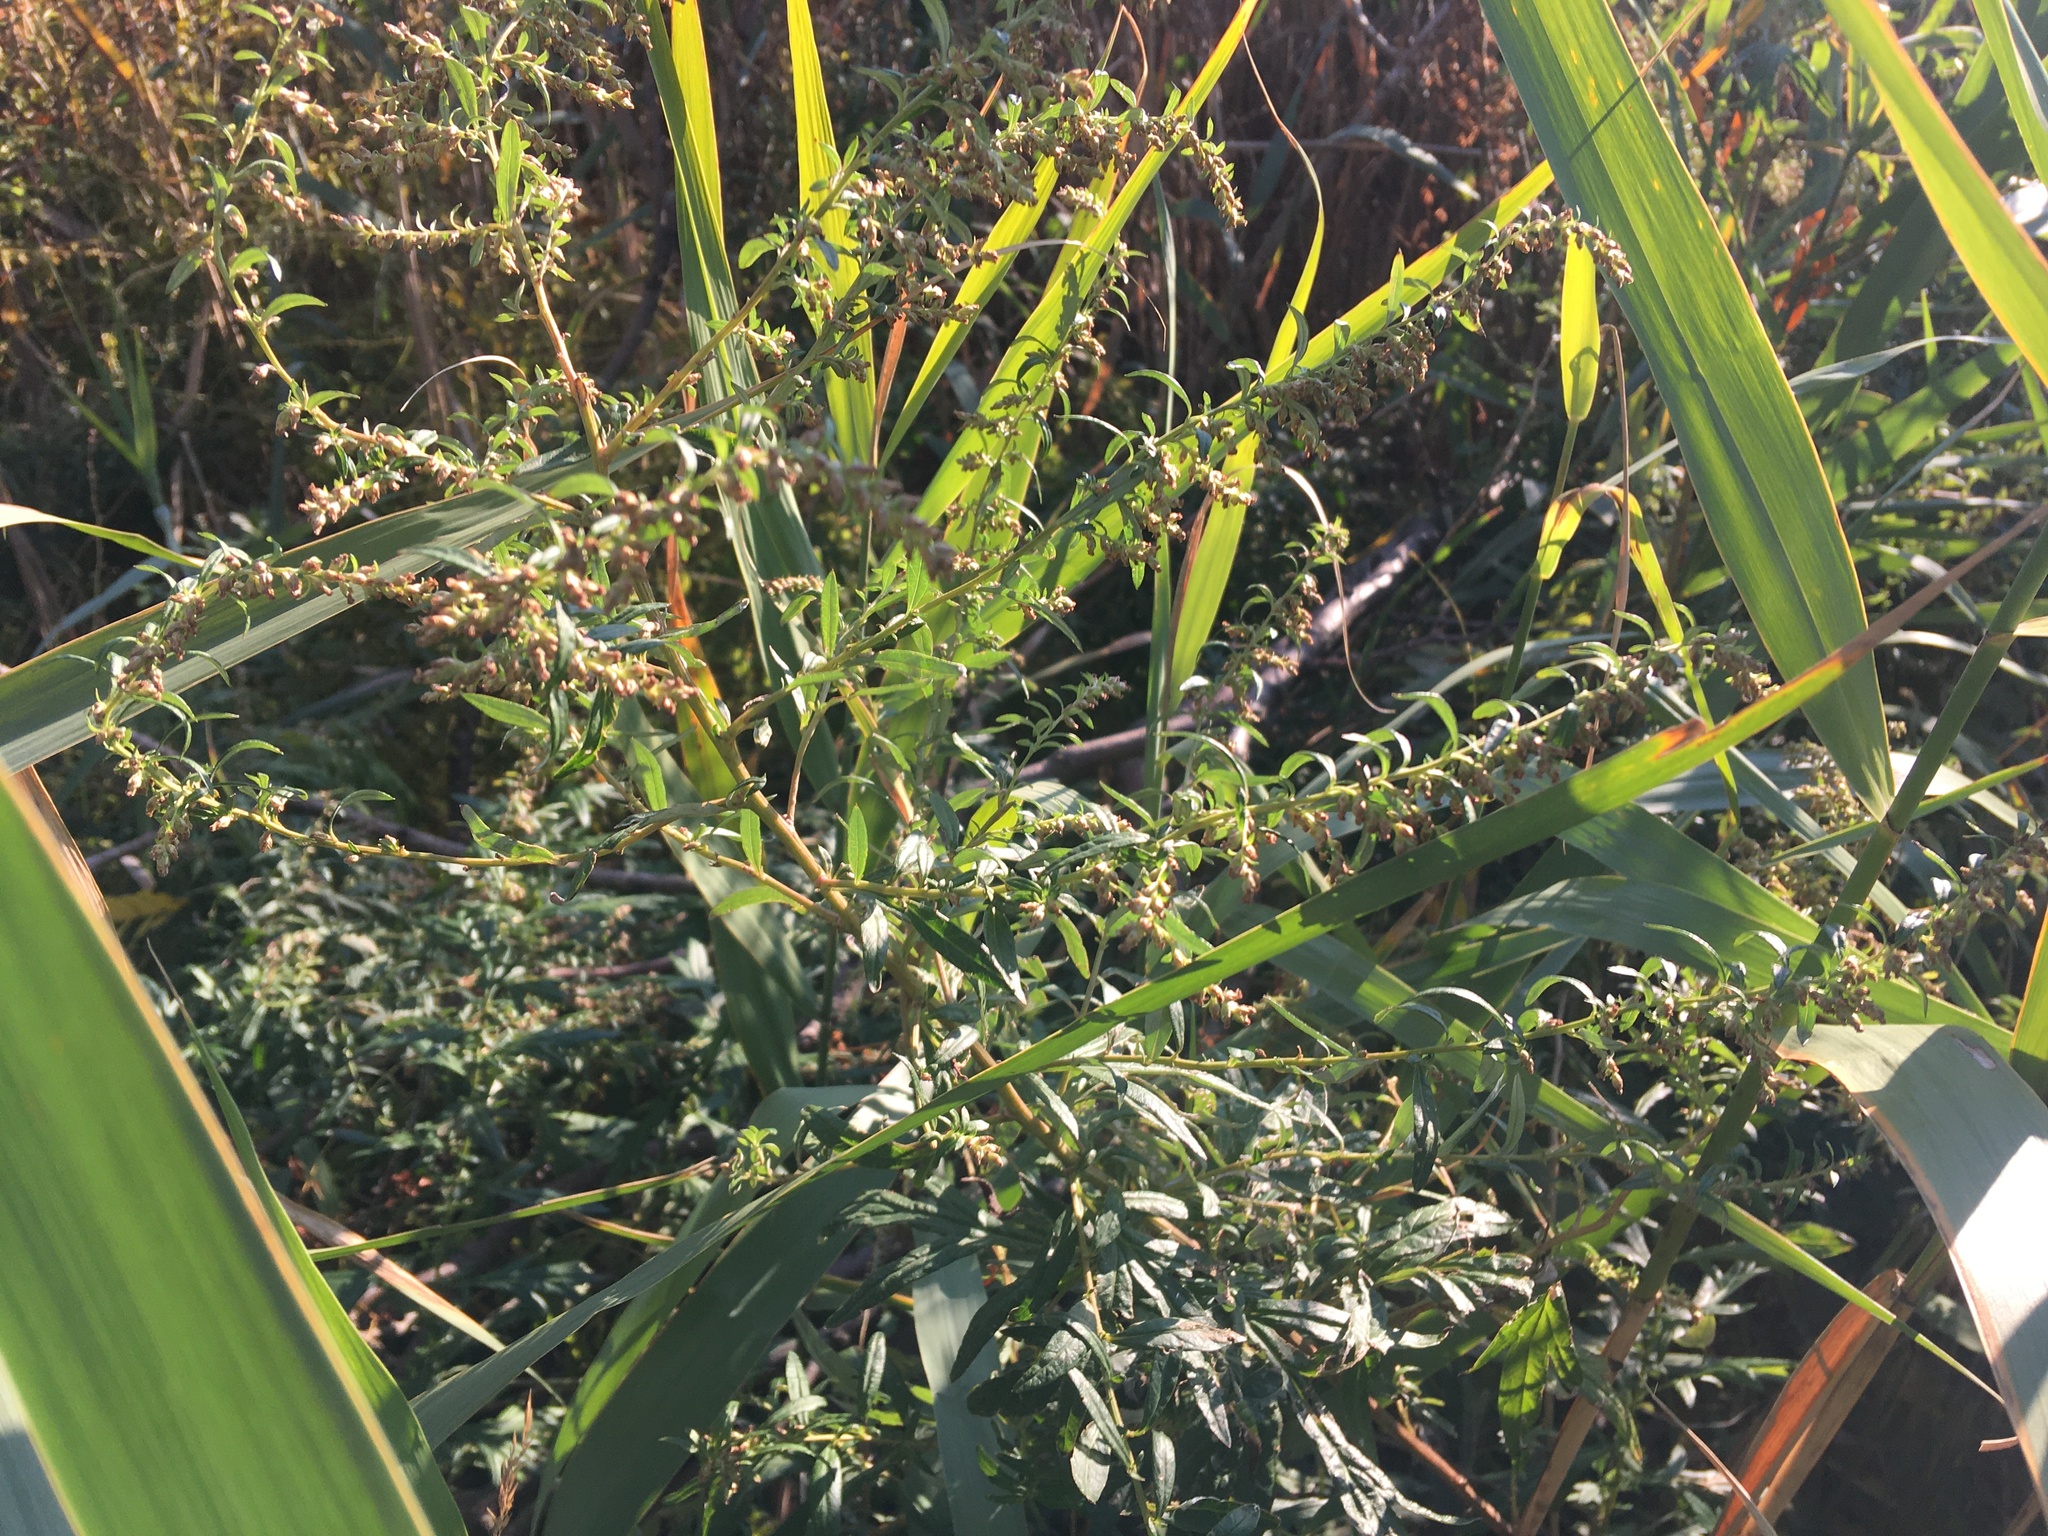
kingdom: Plantae
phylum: Tracheophyta
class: Magnoliopsida
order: Asterales
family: Asteraceae
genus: Artemisia
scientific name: Artemisia vulgaris
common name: Mugwort
